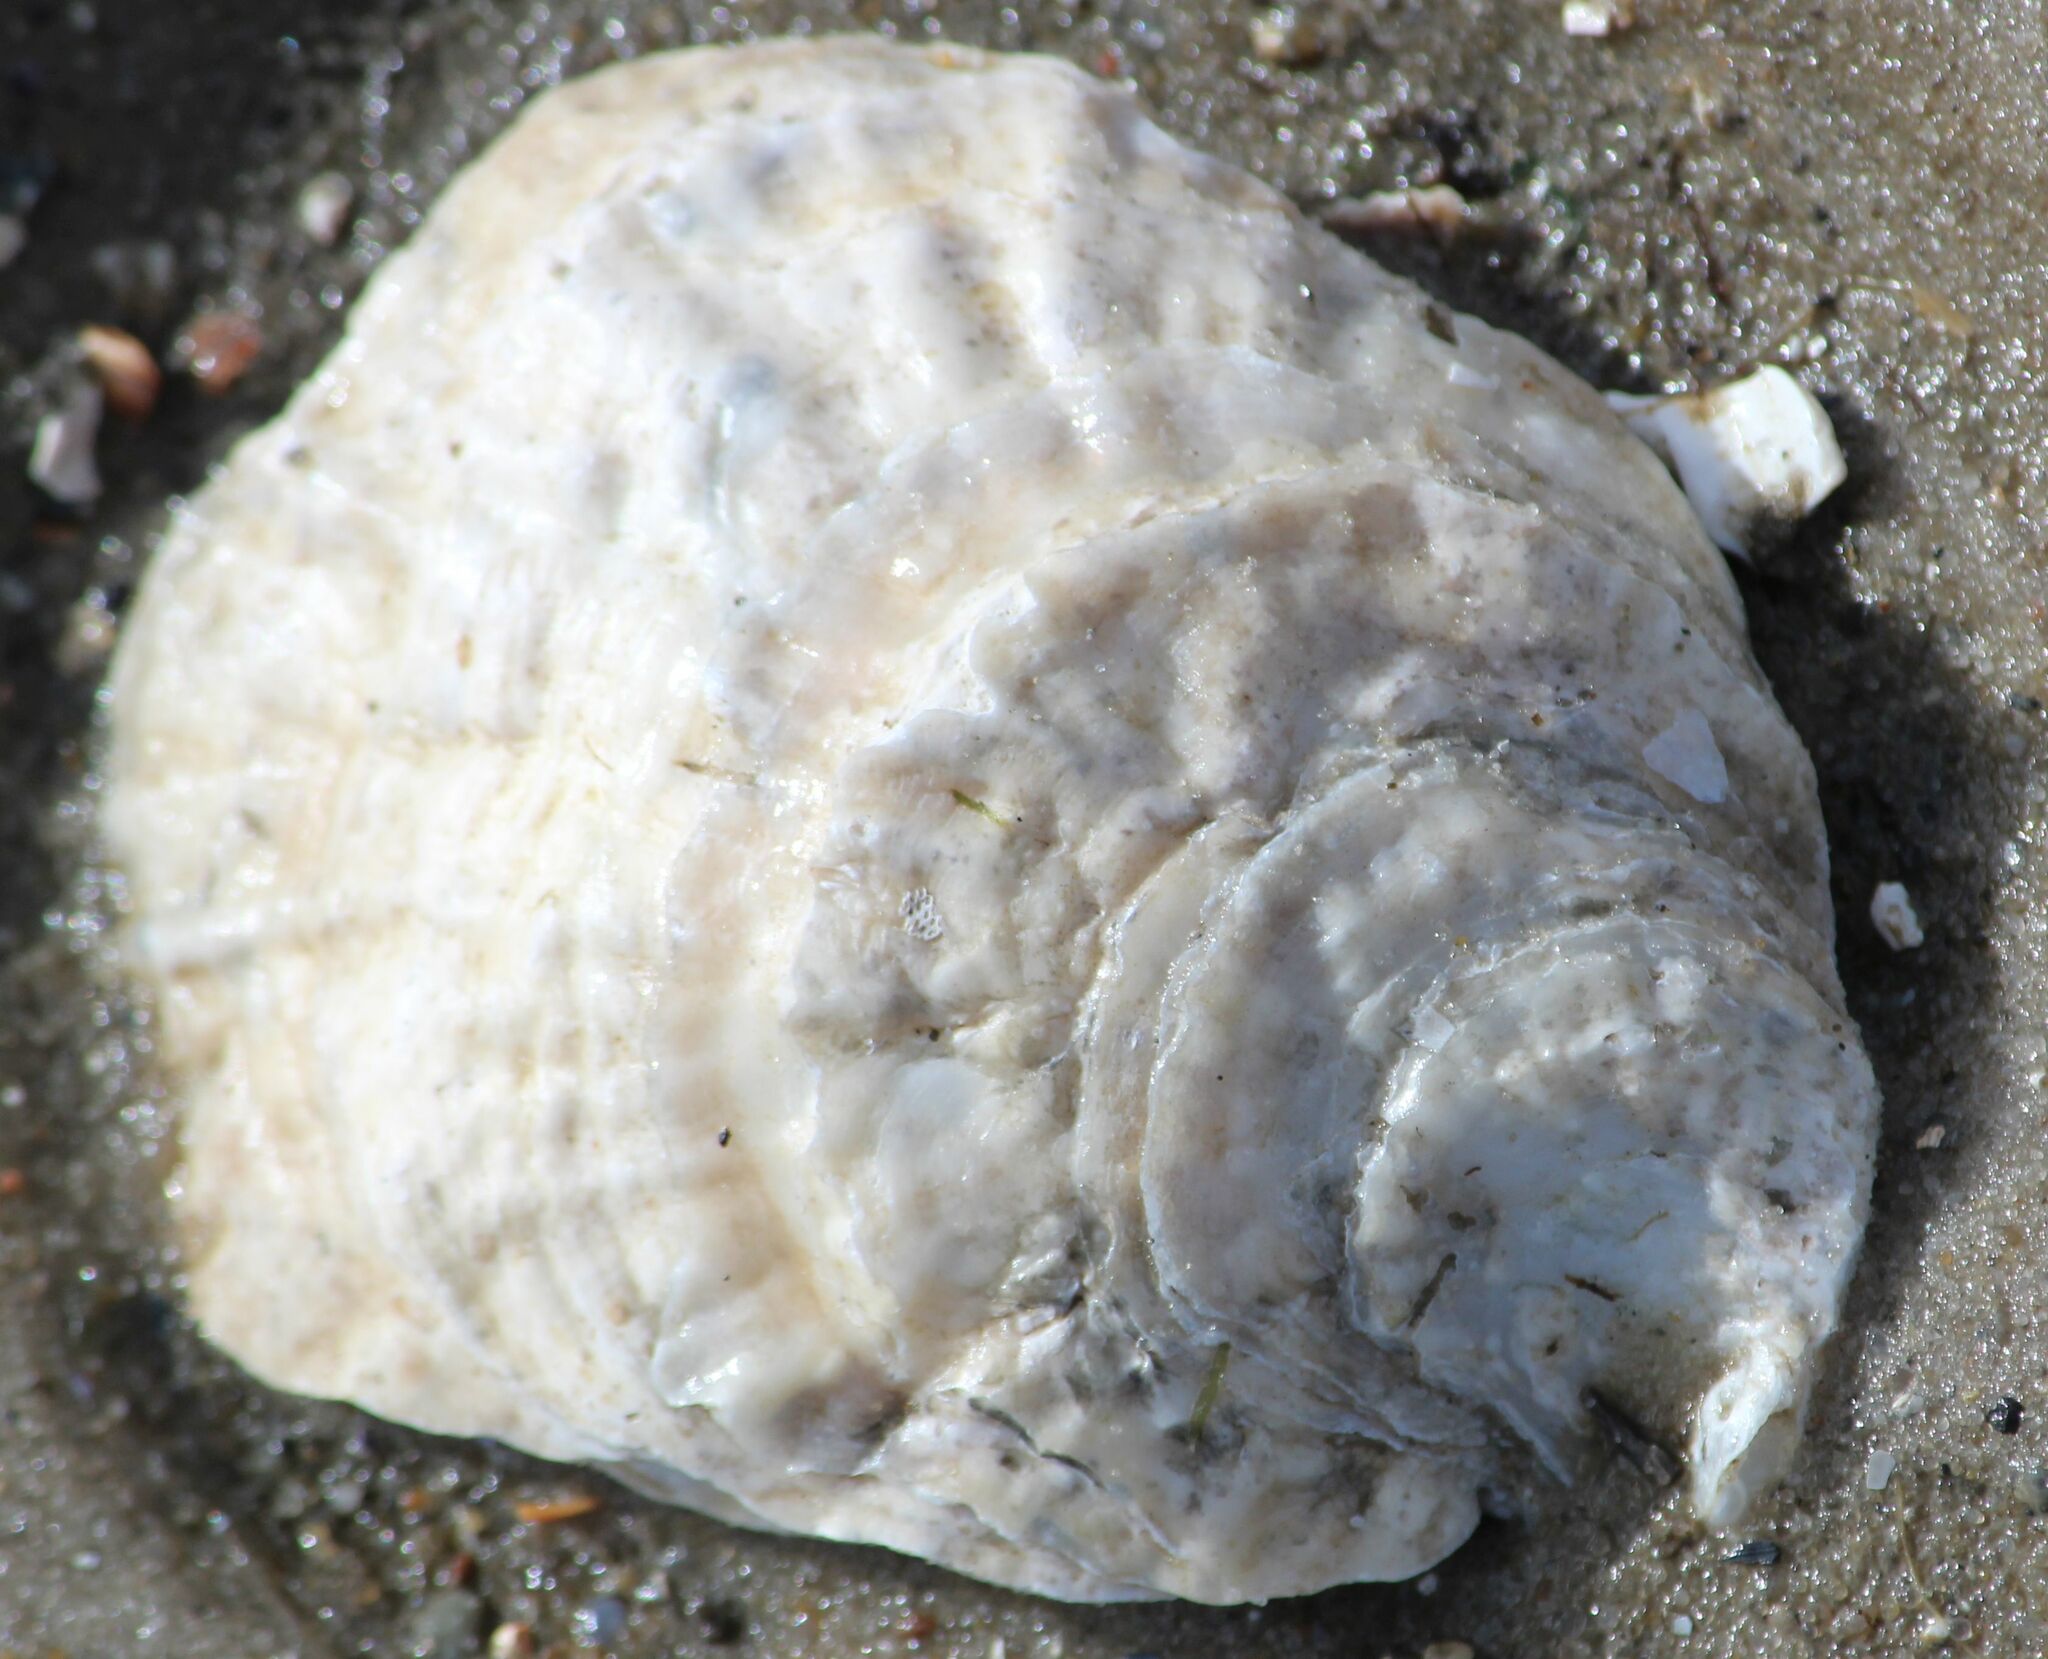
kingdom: Animalia
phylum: Mollusca
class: Bivalvia
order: Ostreida
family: Ostreidae
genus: Ostrea
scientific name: Ostrea edulis
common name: Flat oyster
